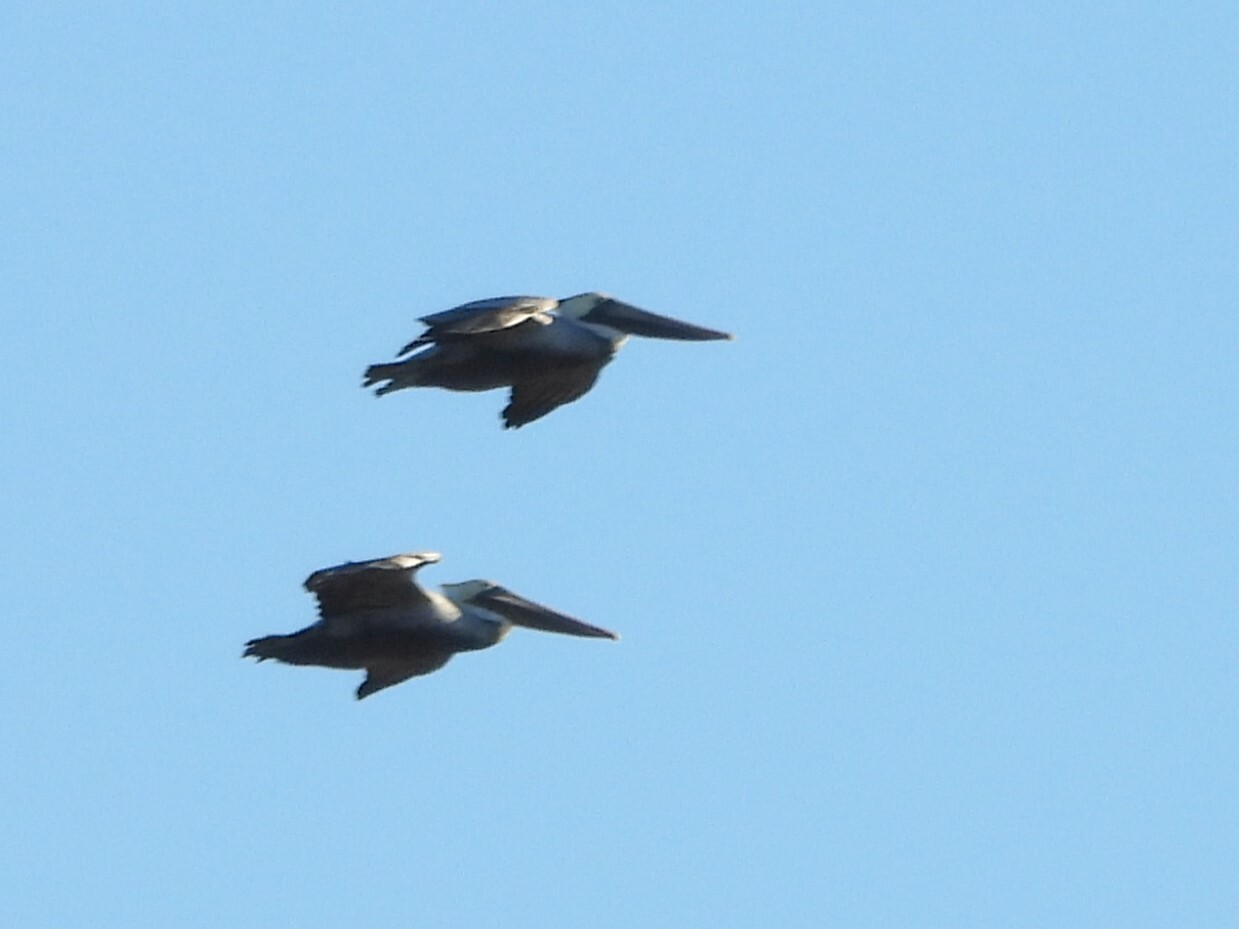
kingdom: Animalia
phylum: Chordata
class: Aves
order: Pelecaniformes
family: Pelecanidae
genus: Pelecanus
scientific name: Pelecanus occidentalis
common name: Brown pelican
